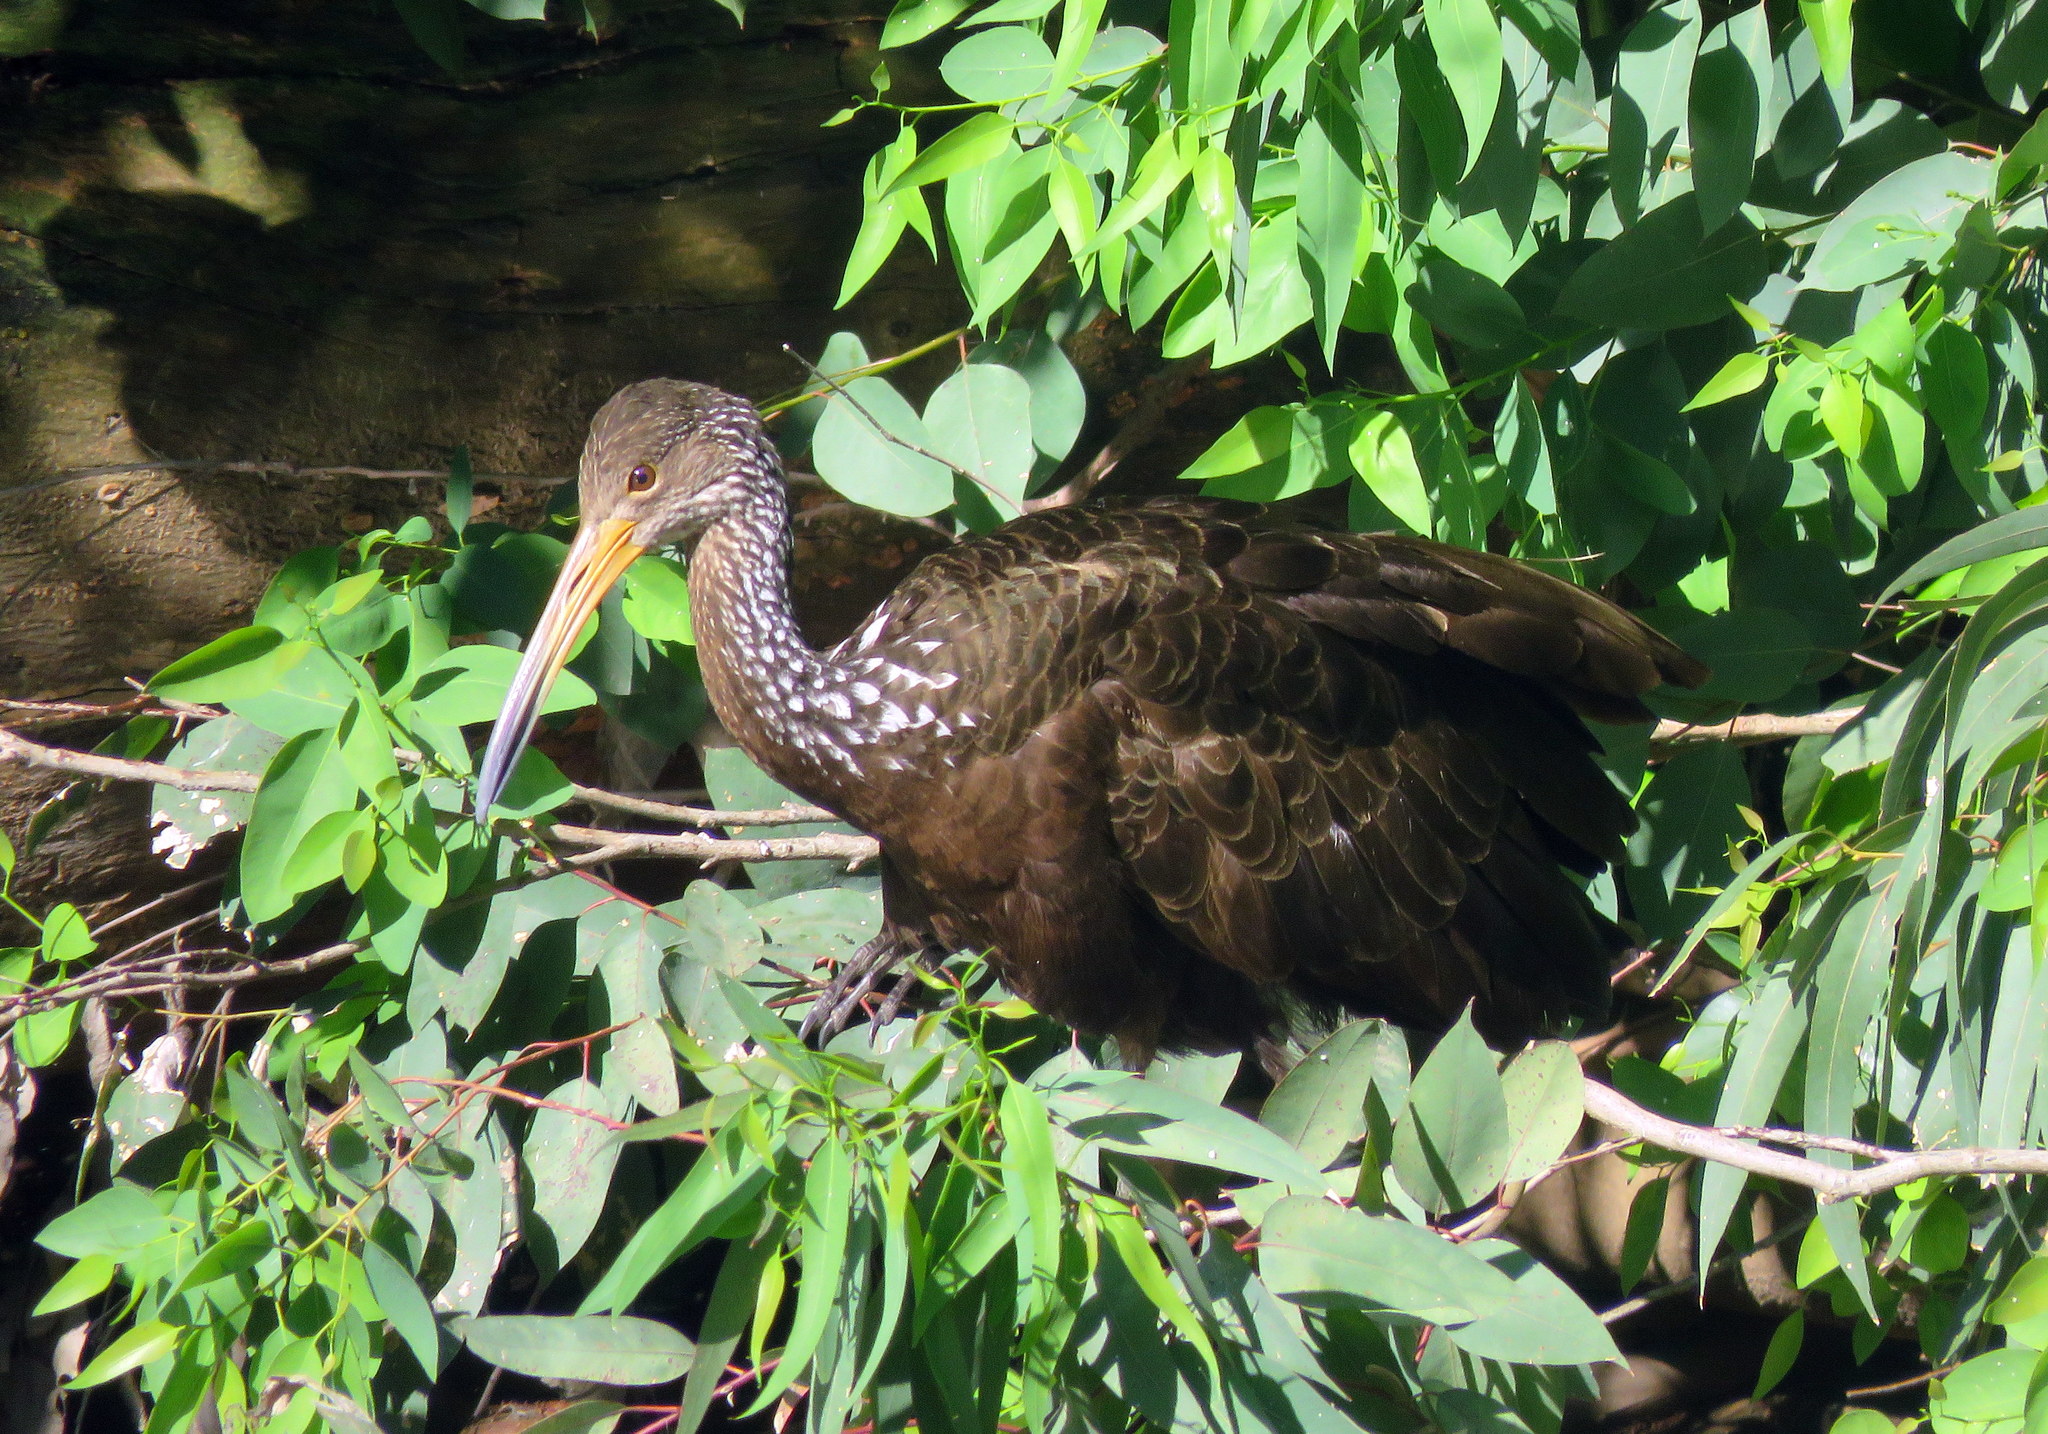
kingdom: Animalia
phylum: Chordata
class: Aves
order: Gruiformes
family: Aramidae
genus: Aramus
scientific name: Aramus guarauna
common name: Limpkin
